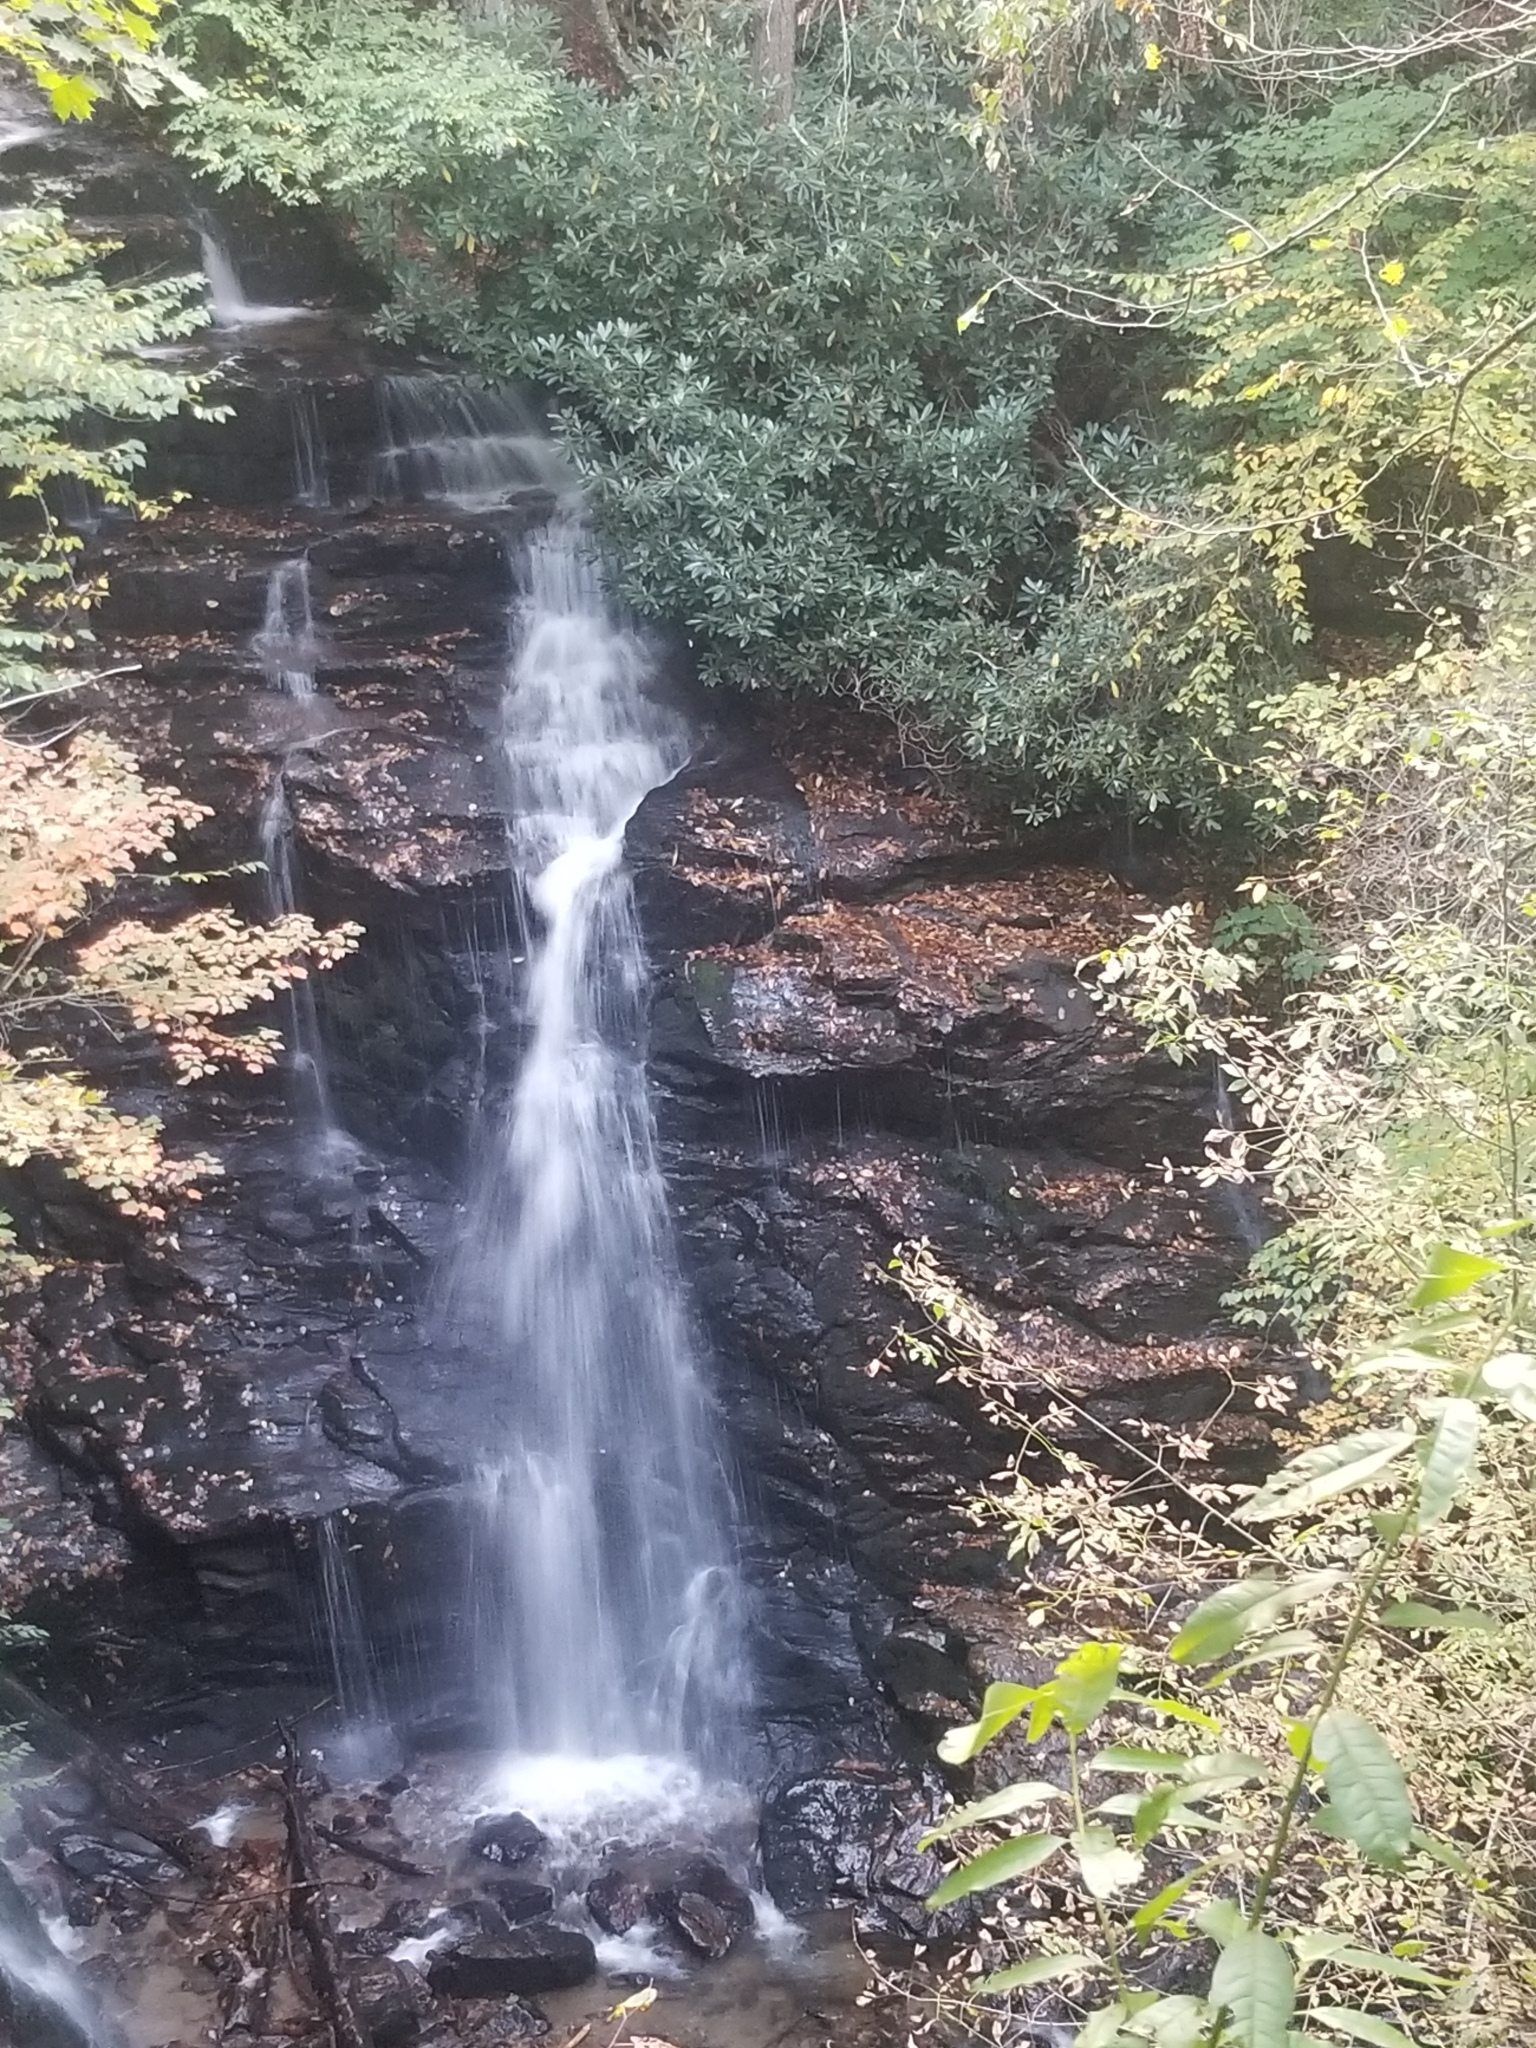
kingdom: Plantae
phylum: Tracheophyta
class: Magnoliopsida
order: Ericales
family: Ericaceae
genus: Rhododendron
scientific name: Rhododendron maximum
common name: Great rhododendron
